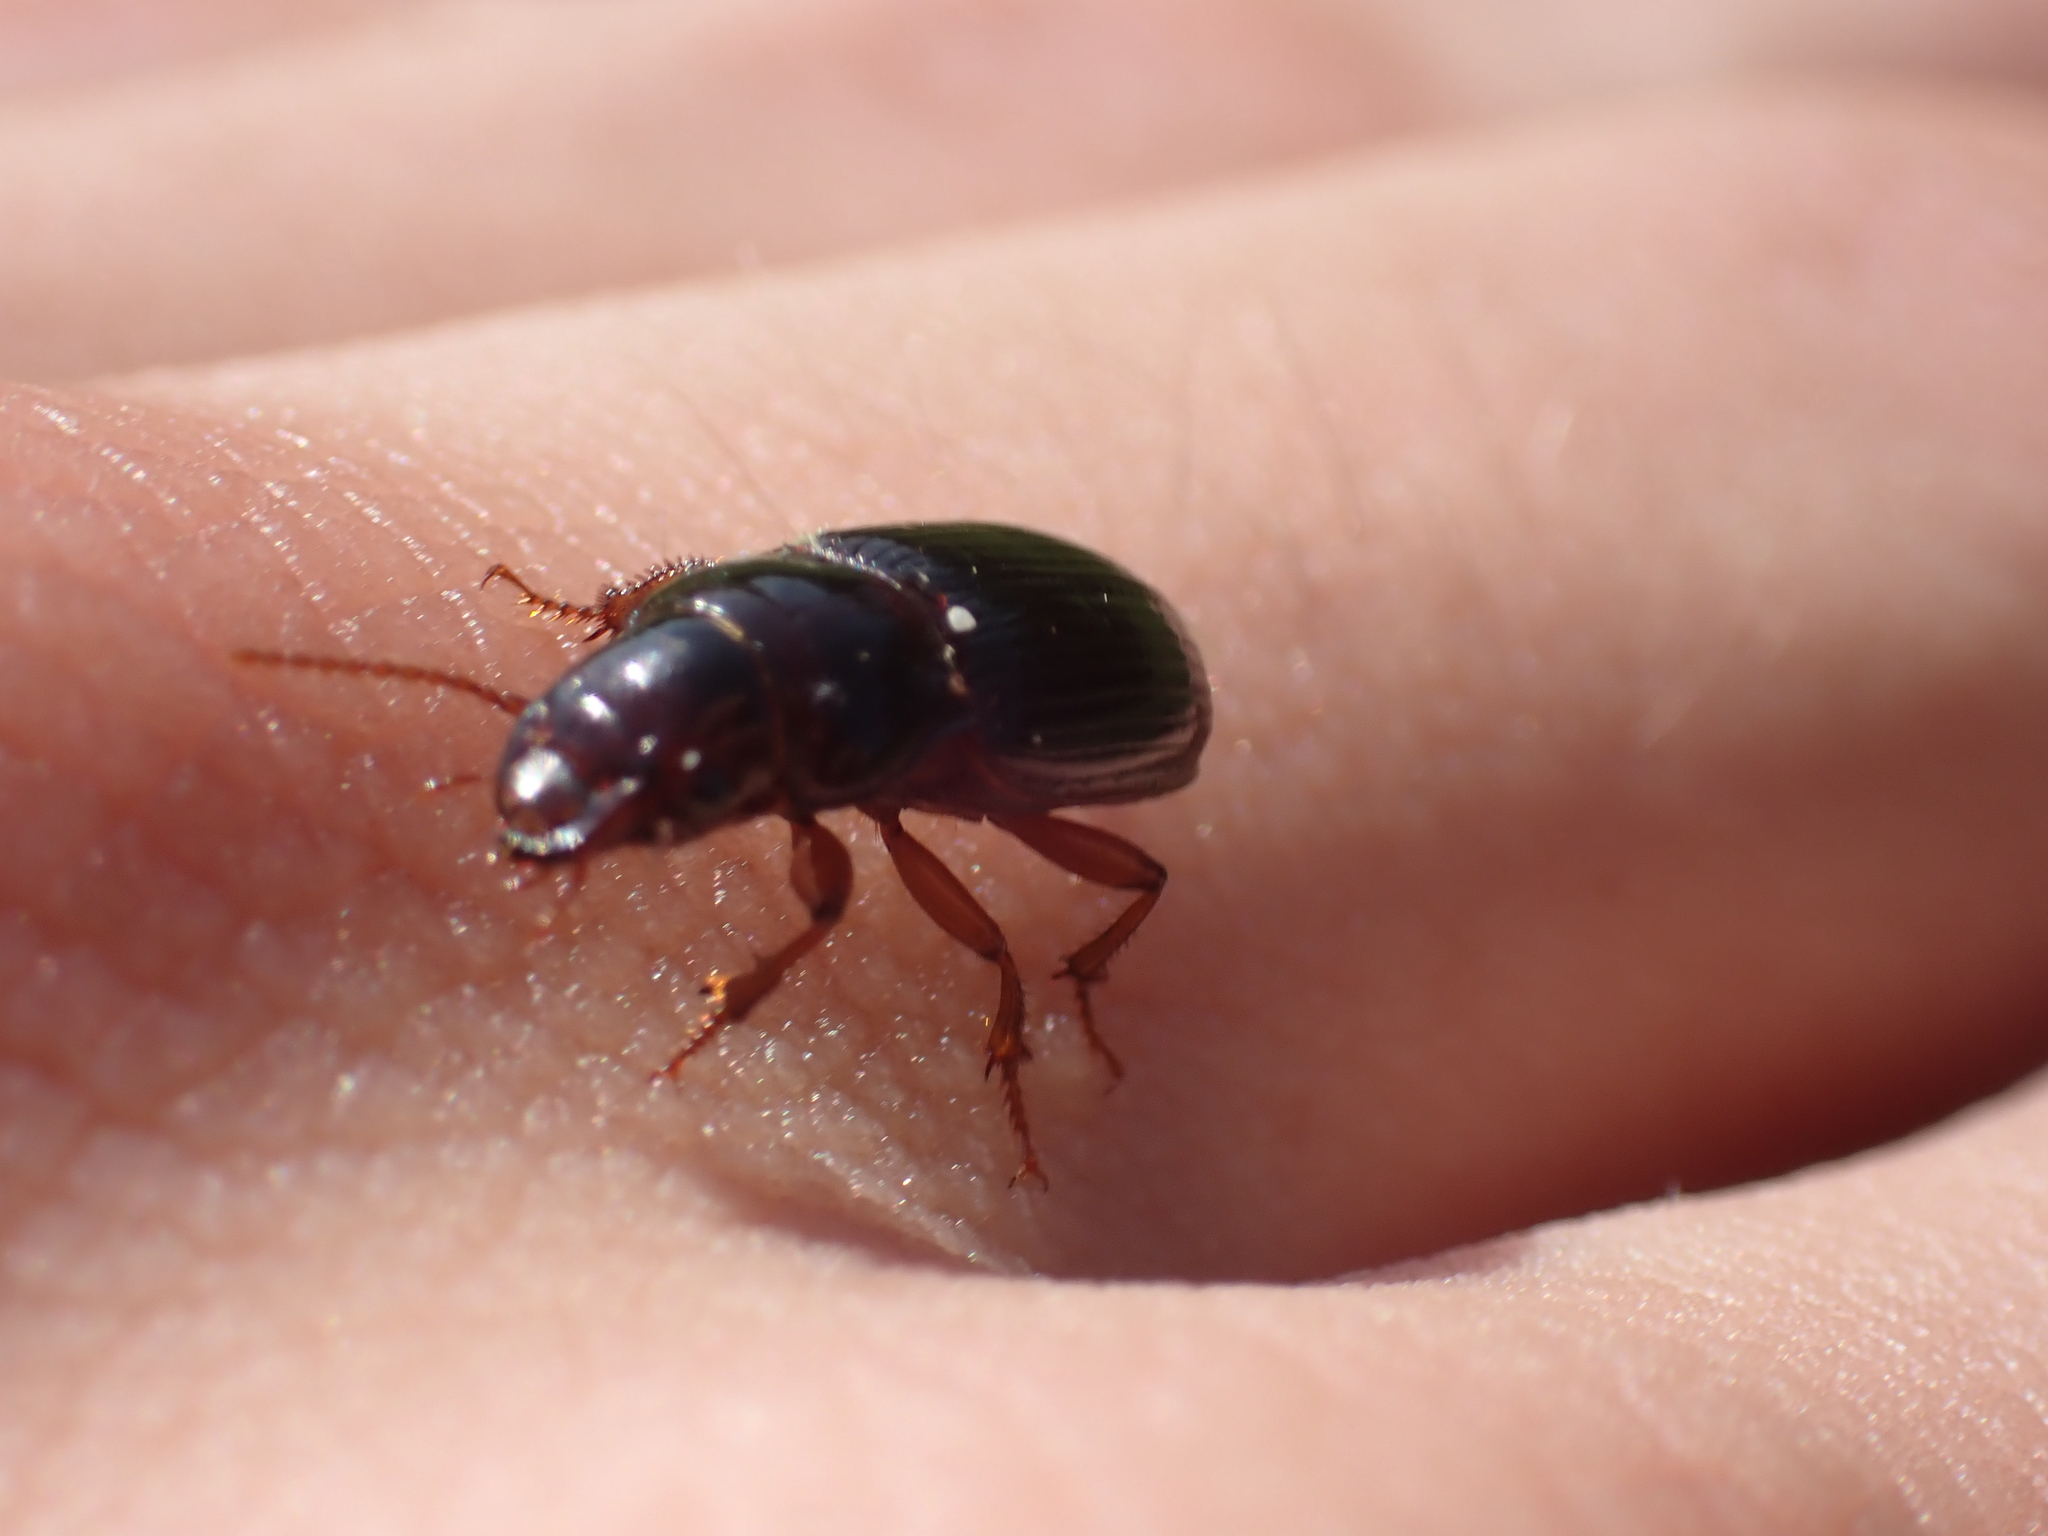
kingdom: Animalia
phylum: Arthropoda
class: Insecta
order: Coleoptera
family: Carabidae
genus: Cratacanthus
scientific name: Cratacanthus dubius
